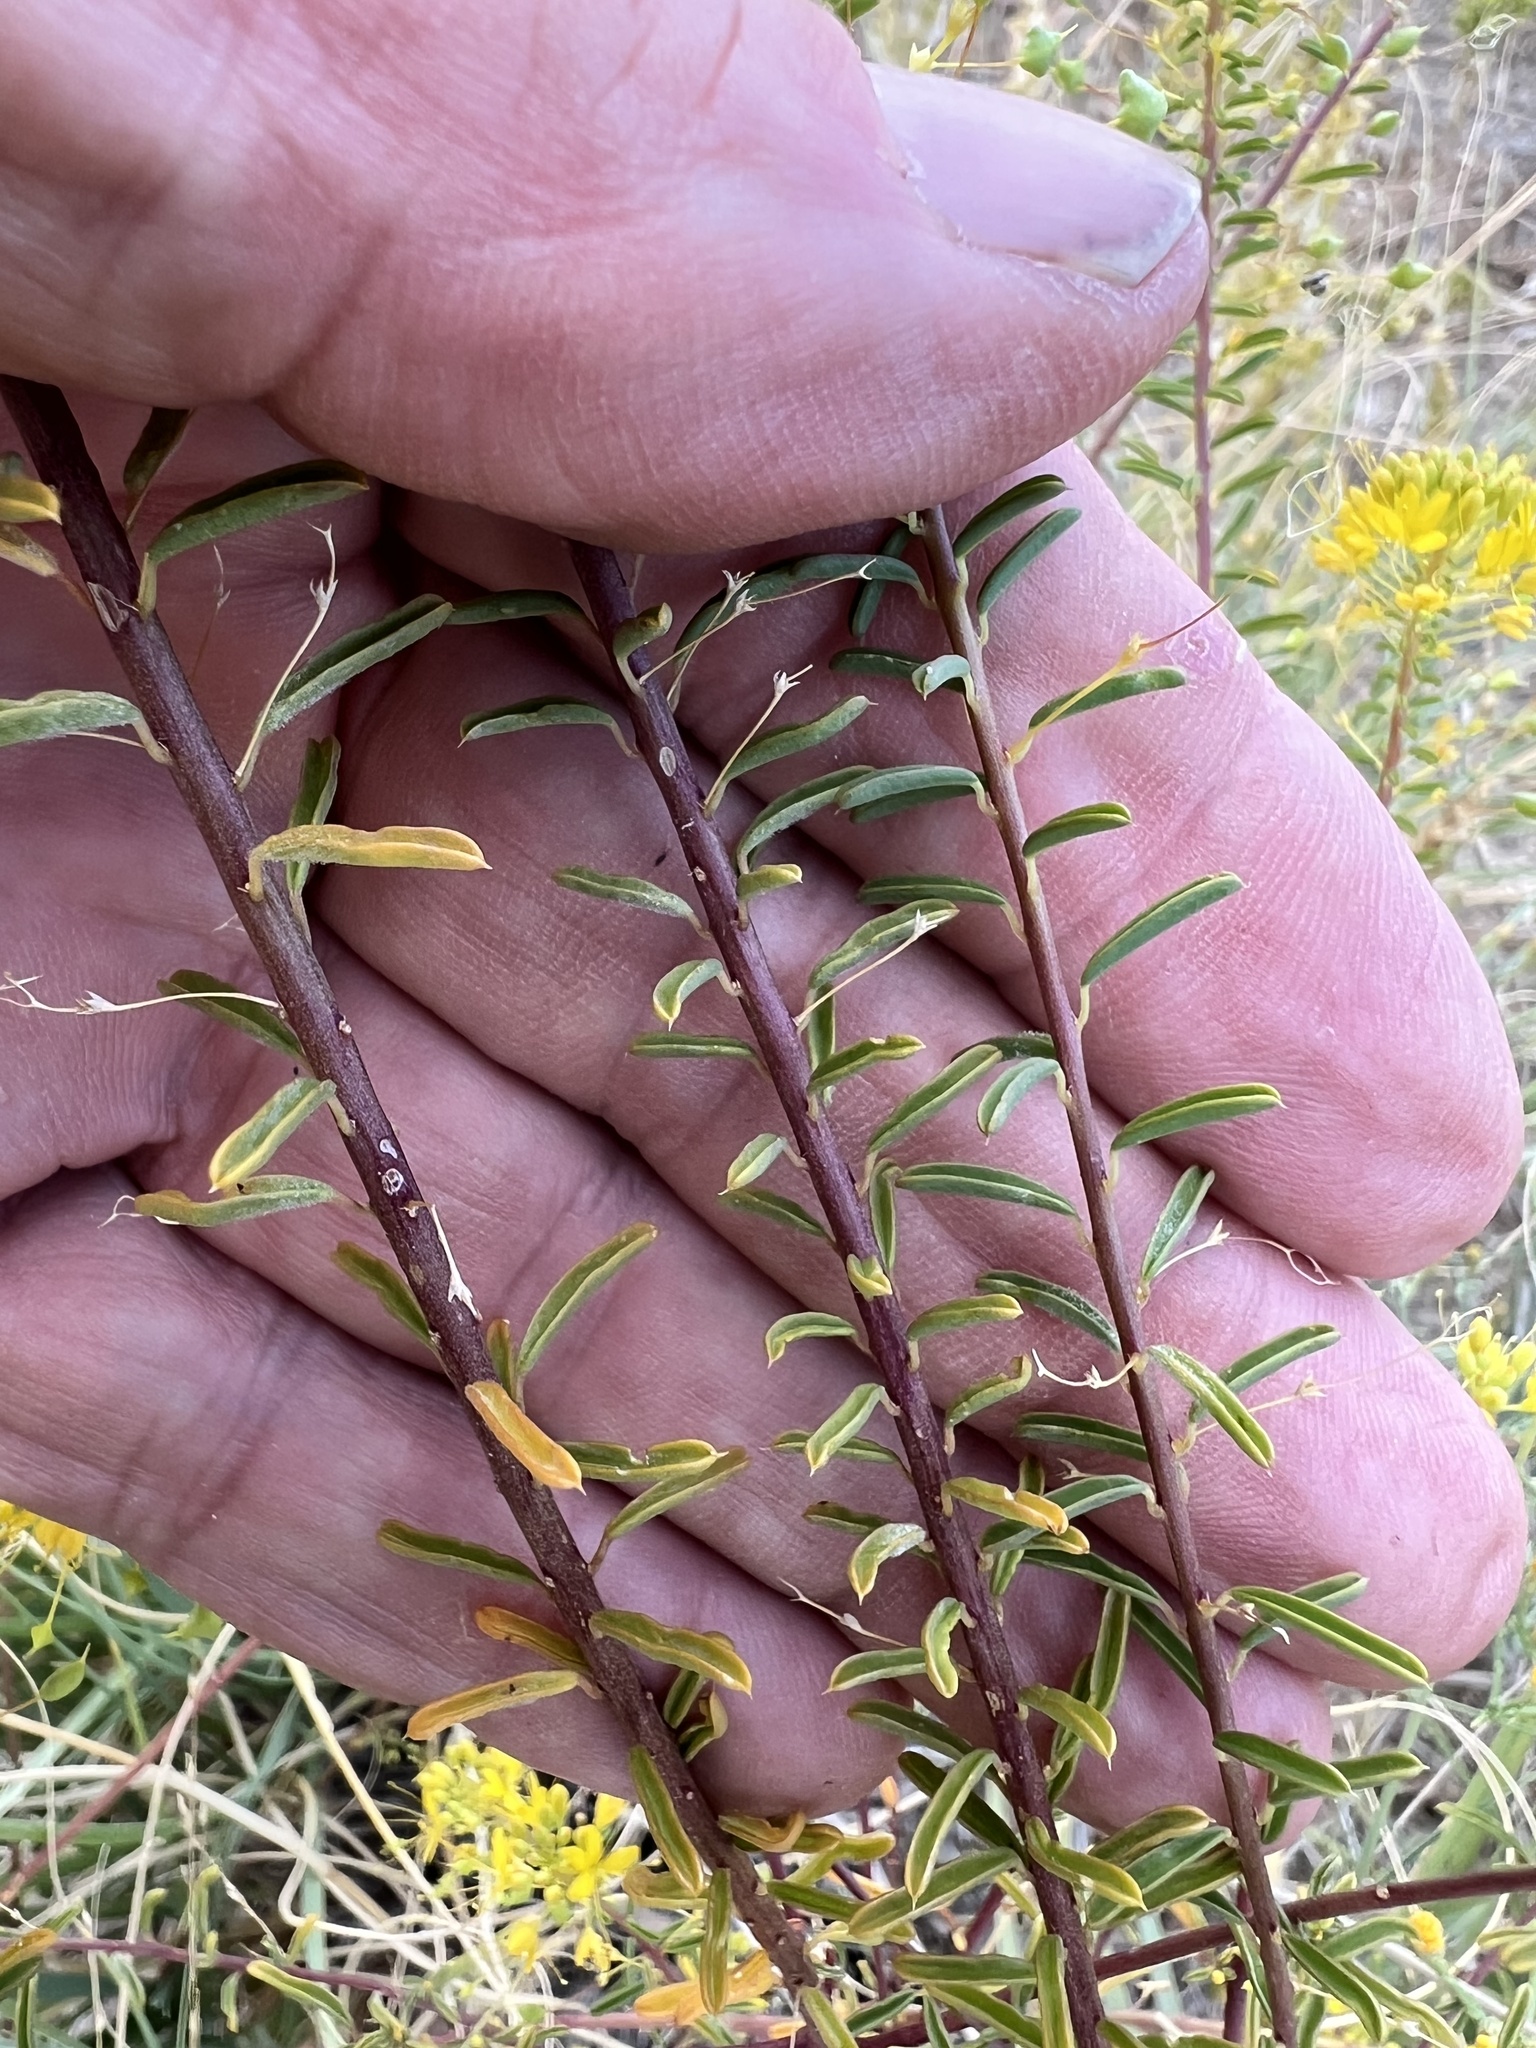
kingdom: Plantae
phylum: Tracheophyta
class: Magnoliopsida
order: Brassicales
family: Cleomaceae
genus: Cleomella
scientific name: Cleomella plocasperma
